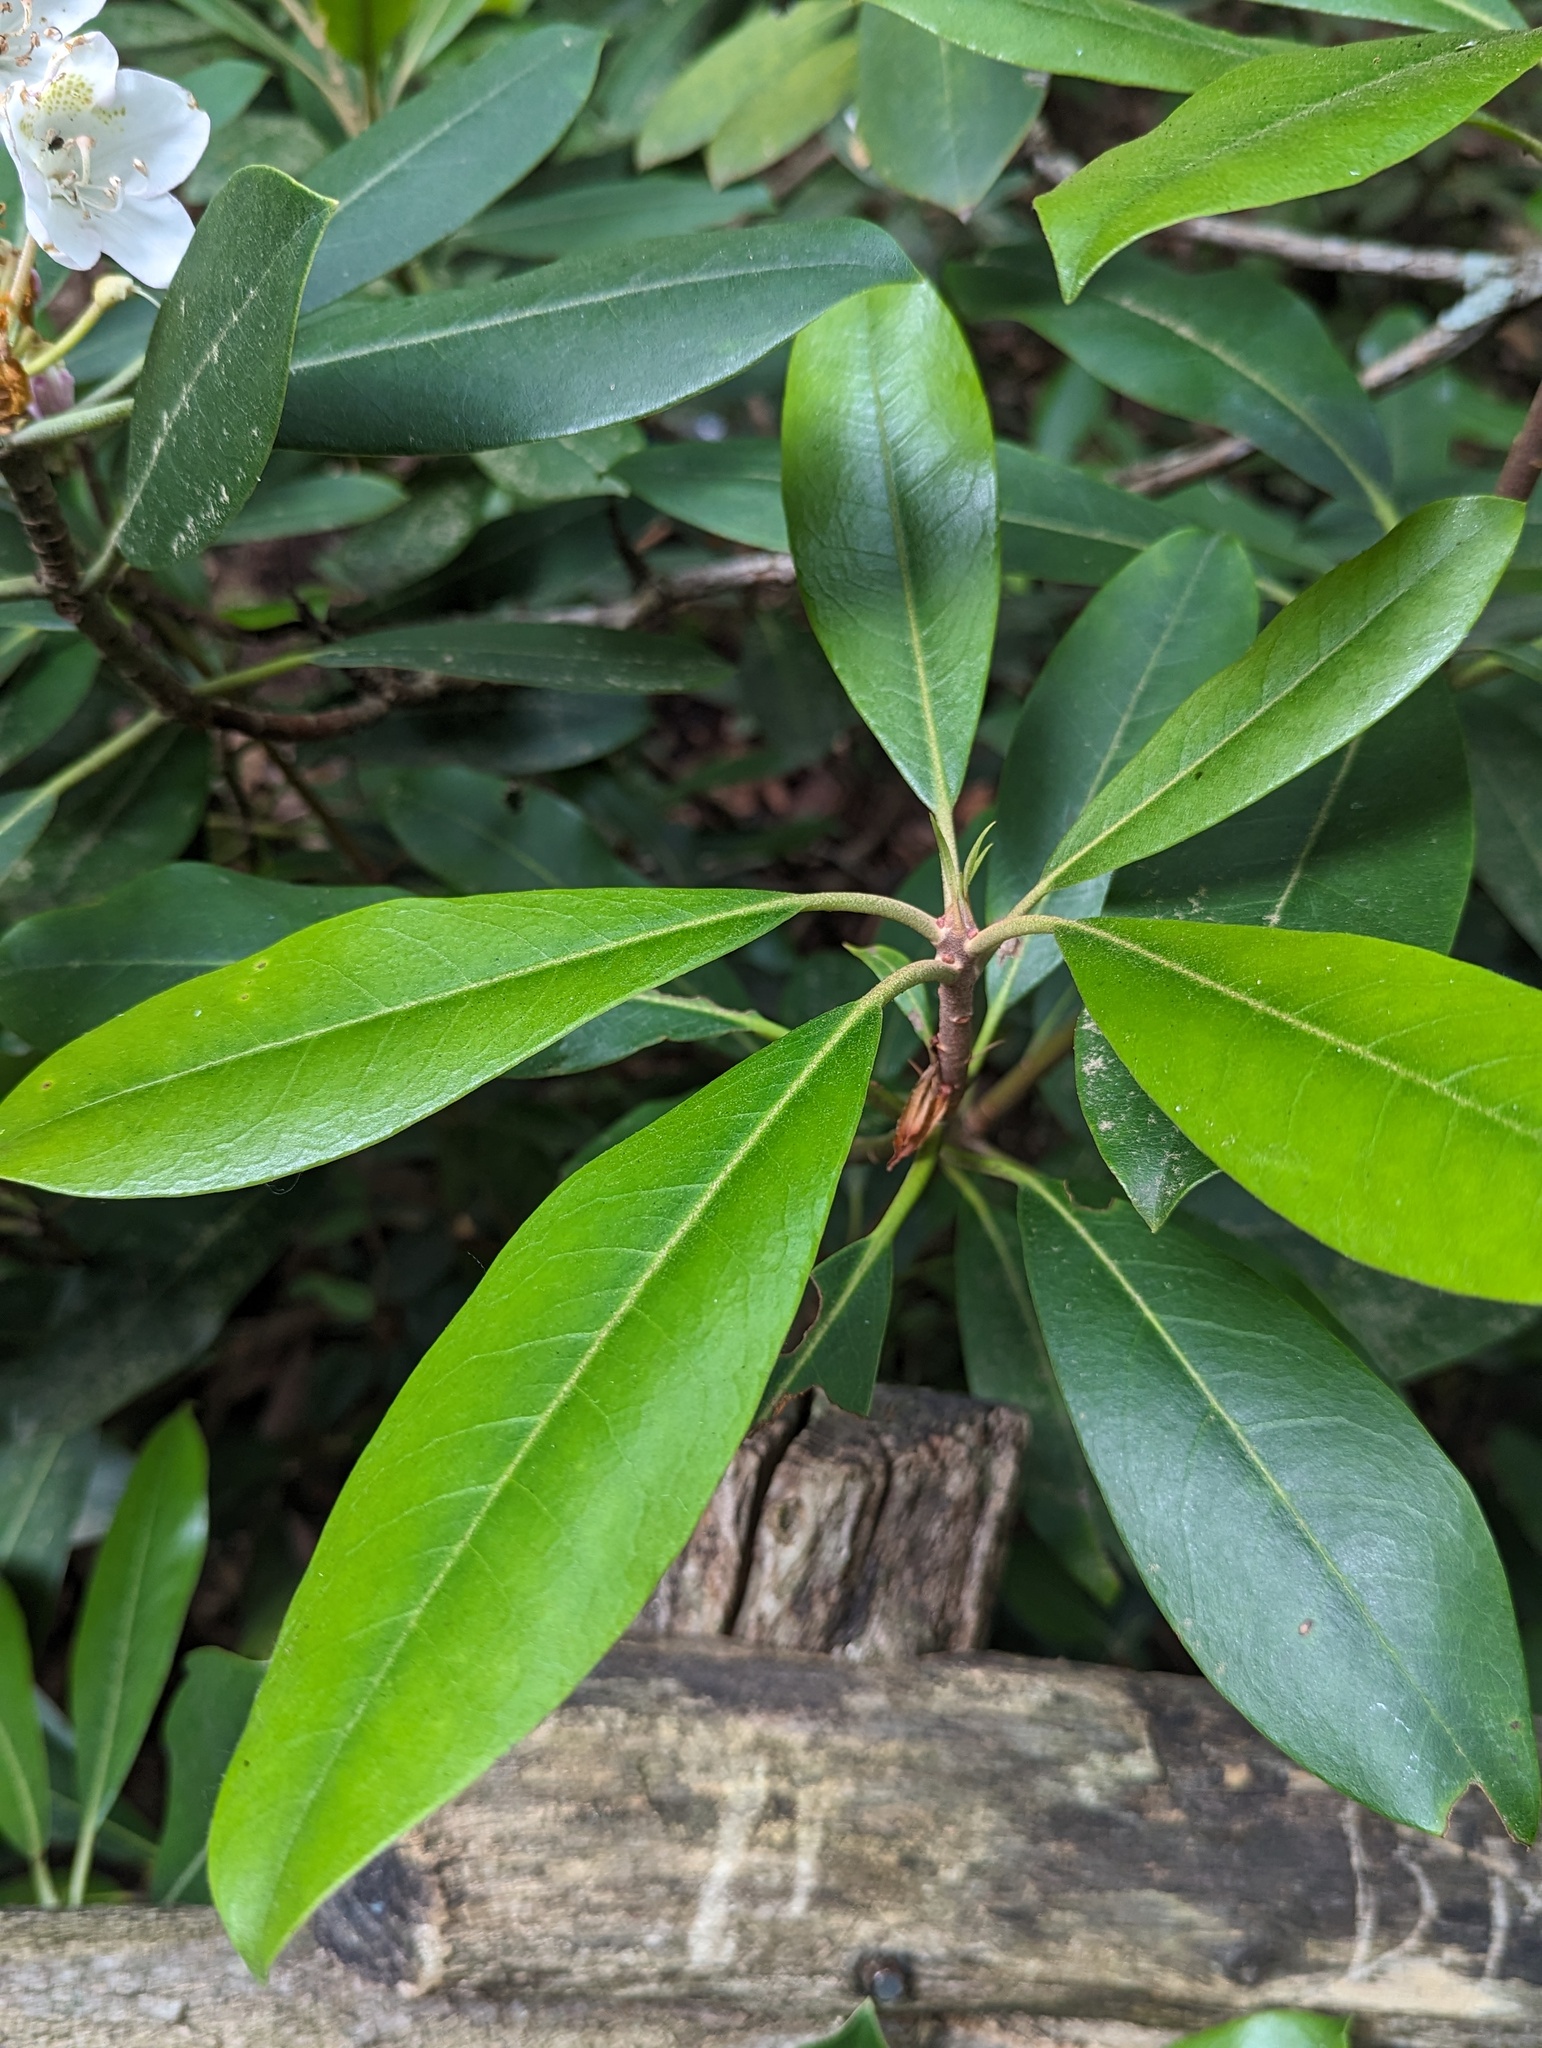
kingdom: Plantae
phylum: Tracheophyta
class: Magnoliopsida
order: Ericales
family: Ericaceae
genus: Rhododendron
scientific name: Rhododendron maximum
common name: Great rhododendron
